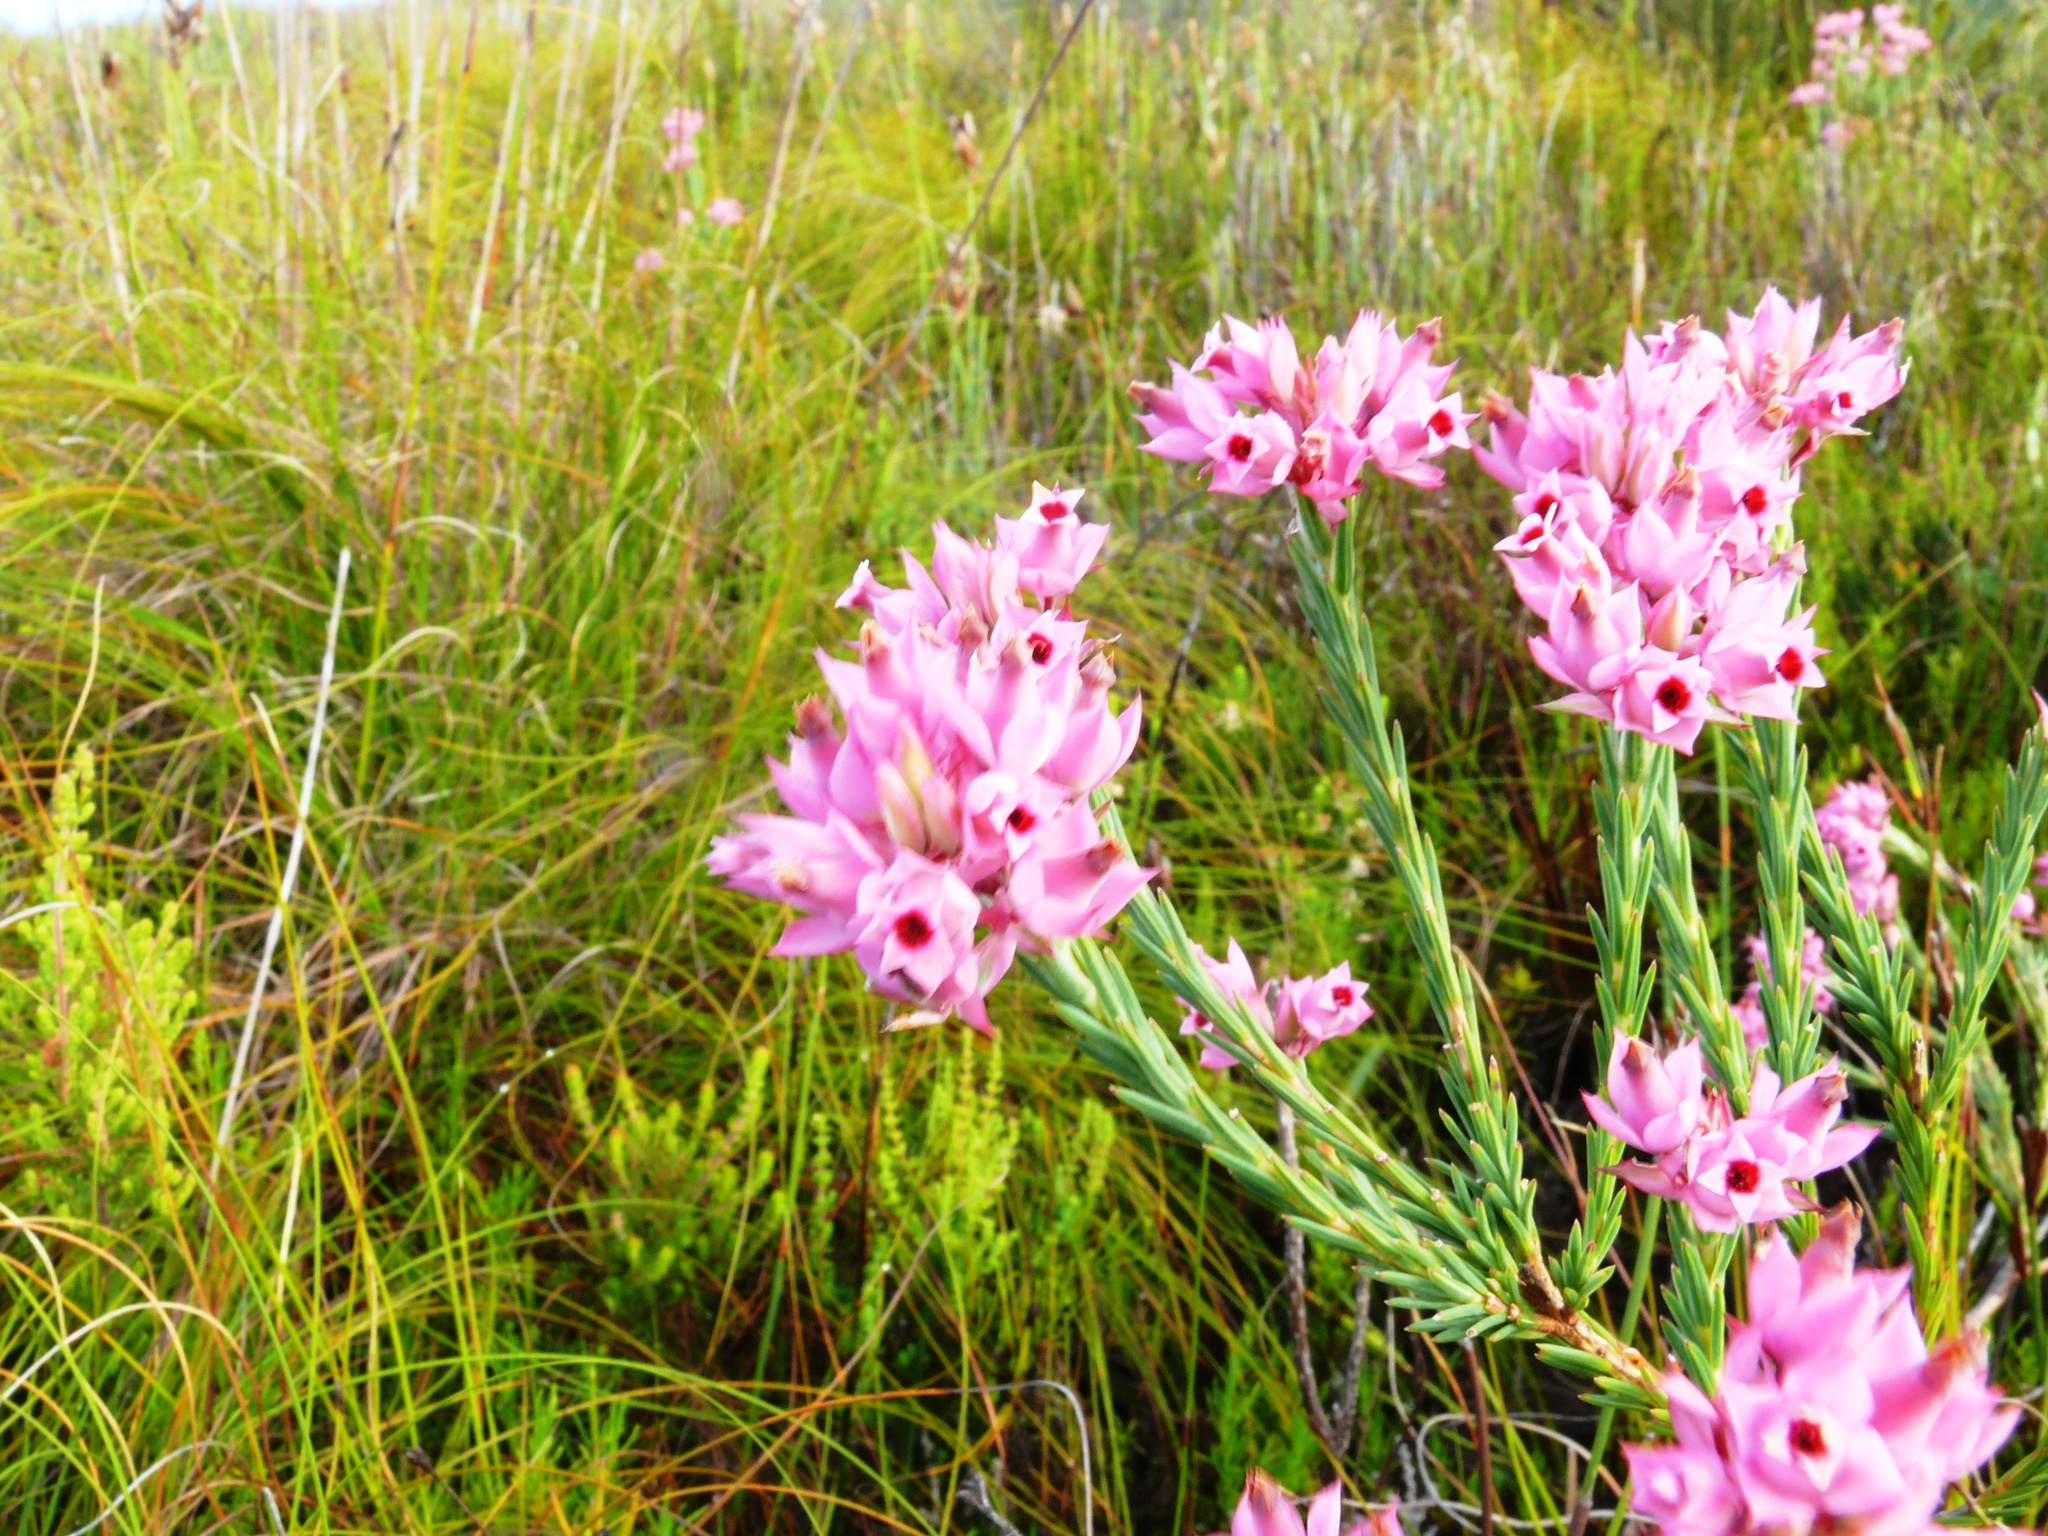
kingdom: Plantae
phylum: Tracheophyta
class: Magnoliopsida
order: Ericales
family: Ericaceae
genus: Erica
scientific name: Erica taxifolia
